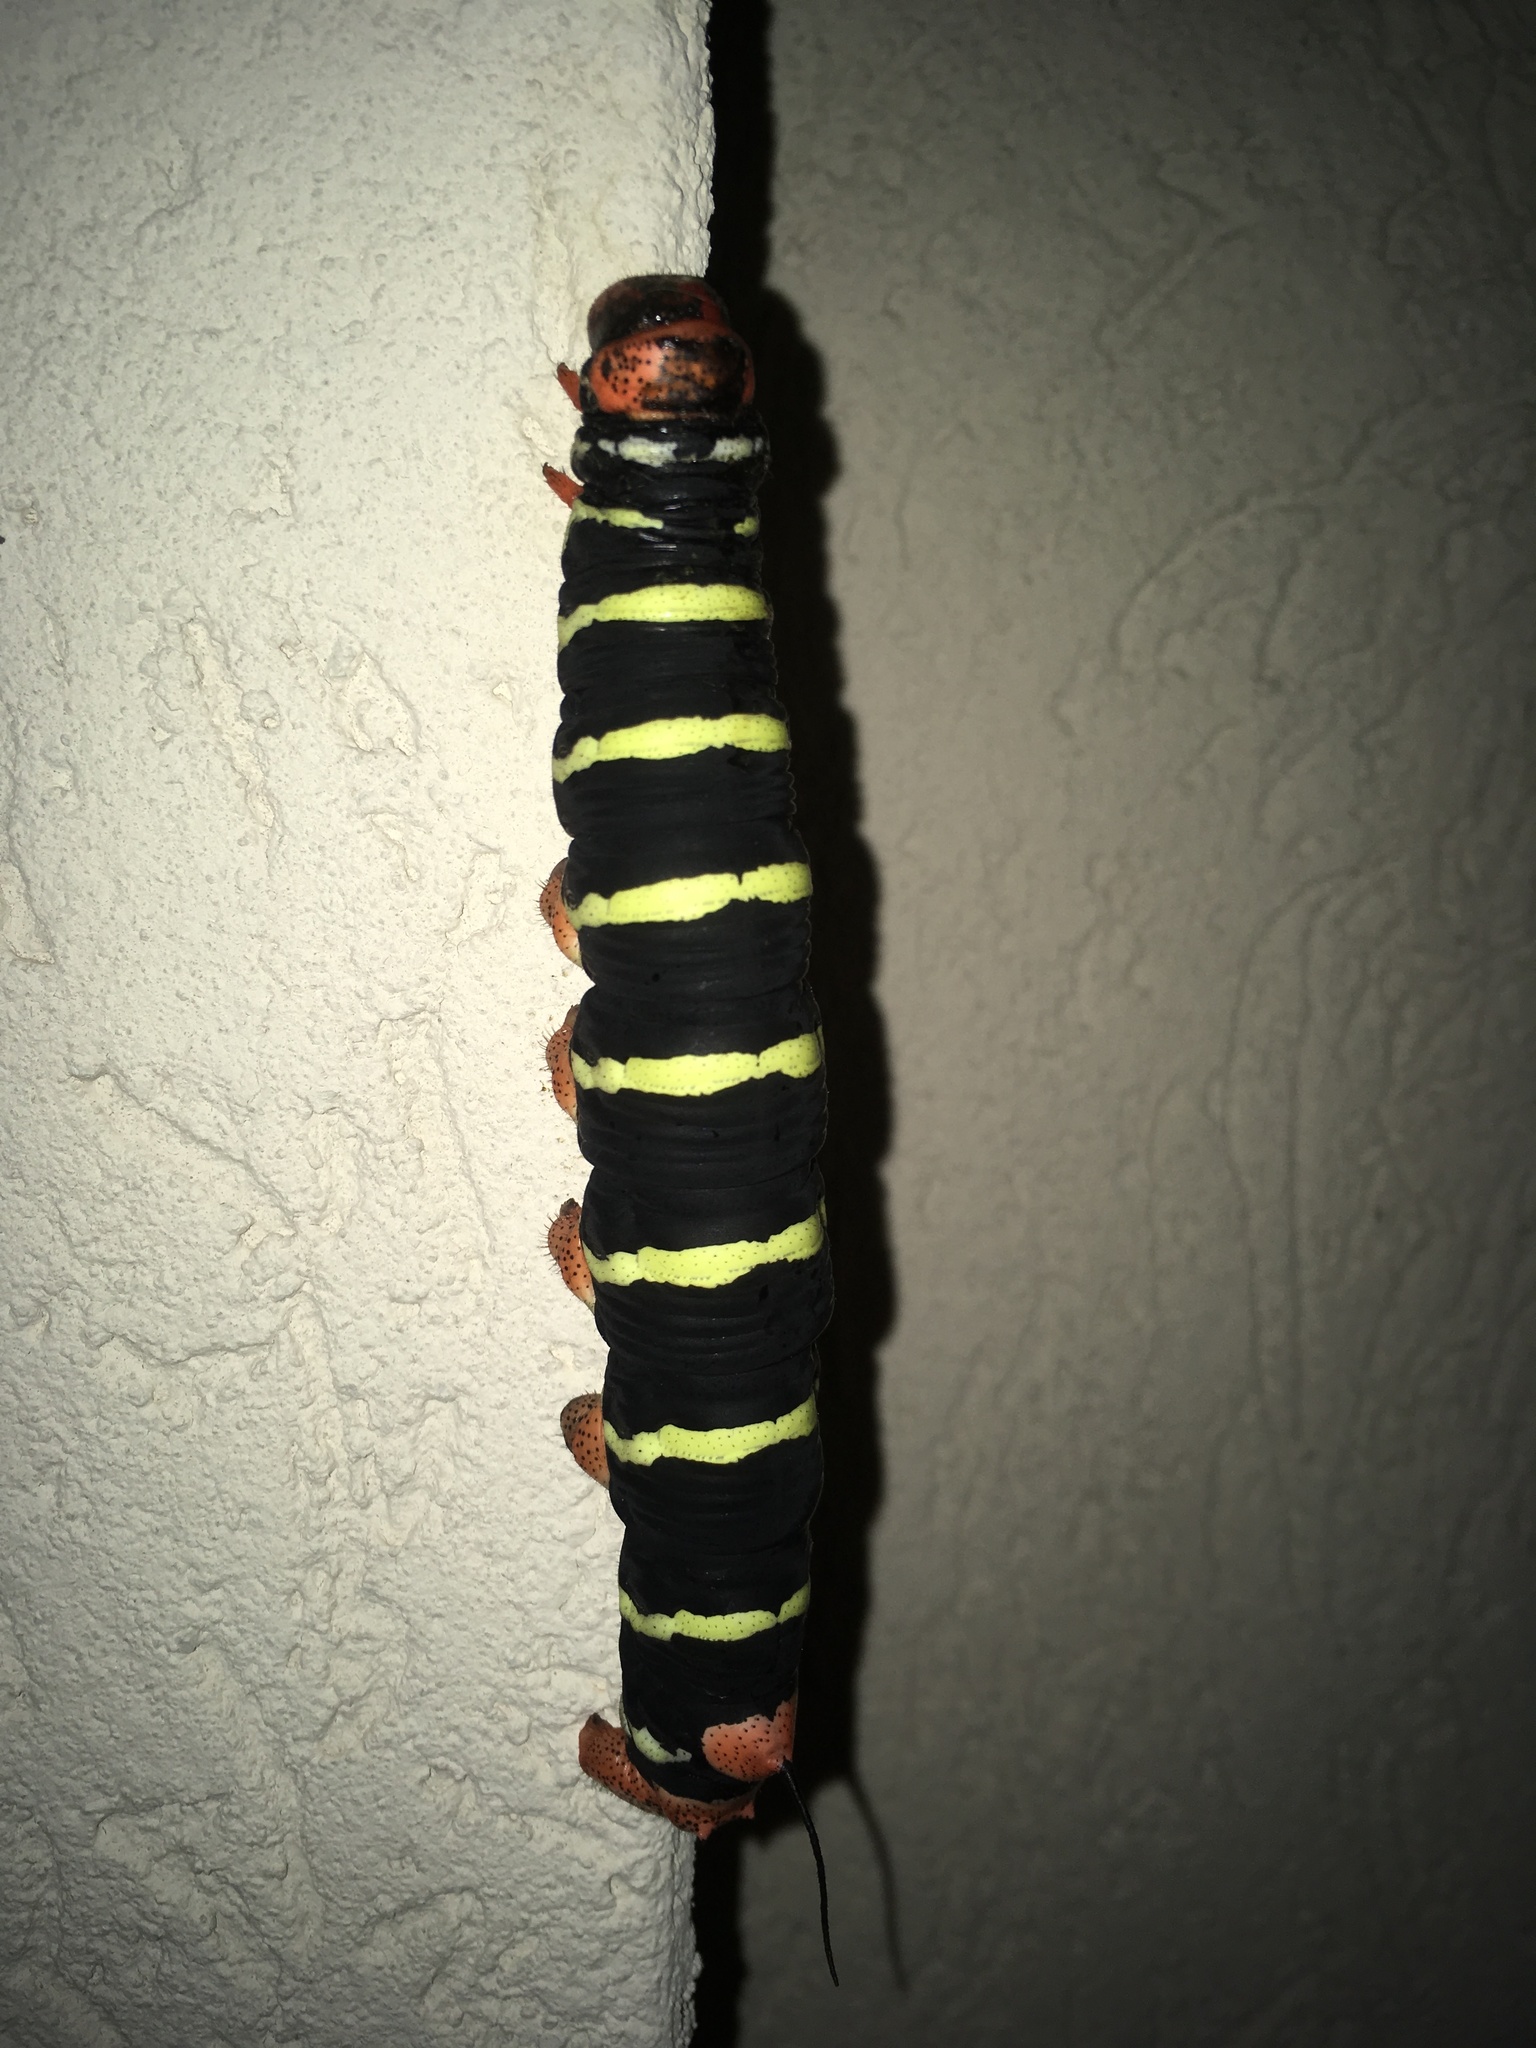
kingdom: Animalia
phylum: Arthropoda
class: Insecta
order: Lepidoptera
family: Sphingidae
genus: Pseudosphinx
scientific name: Pseudosphinx tetrio
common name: Tetrio sphinx
